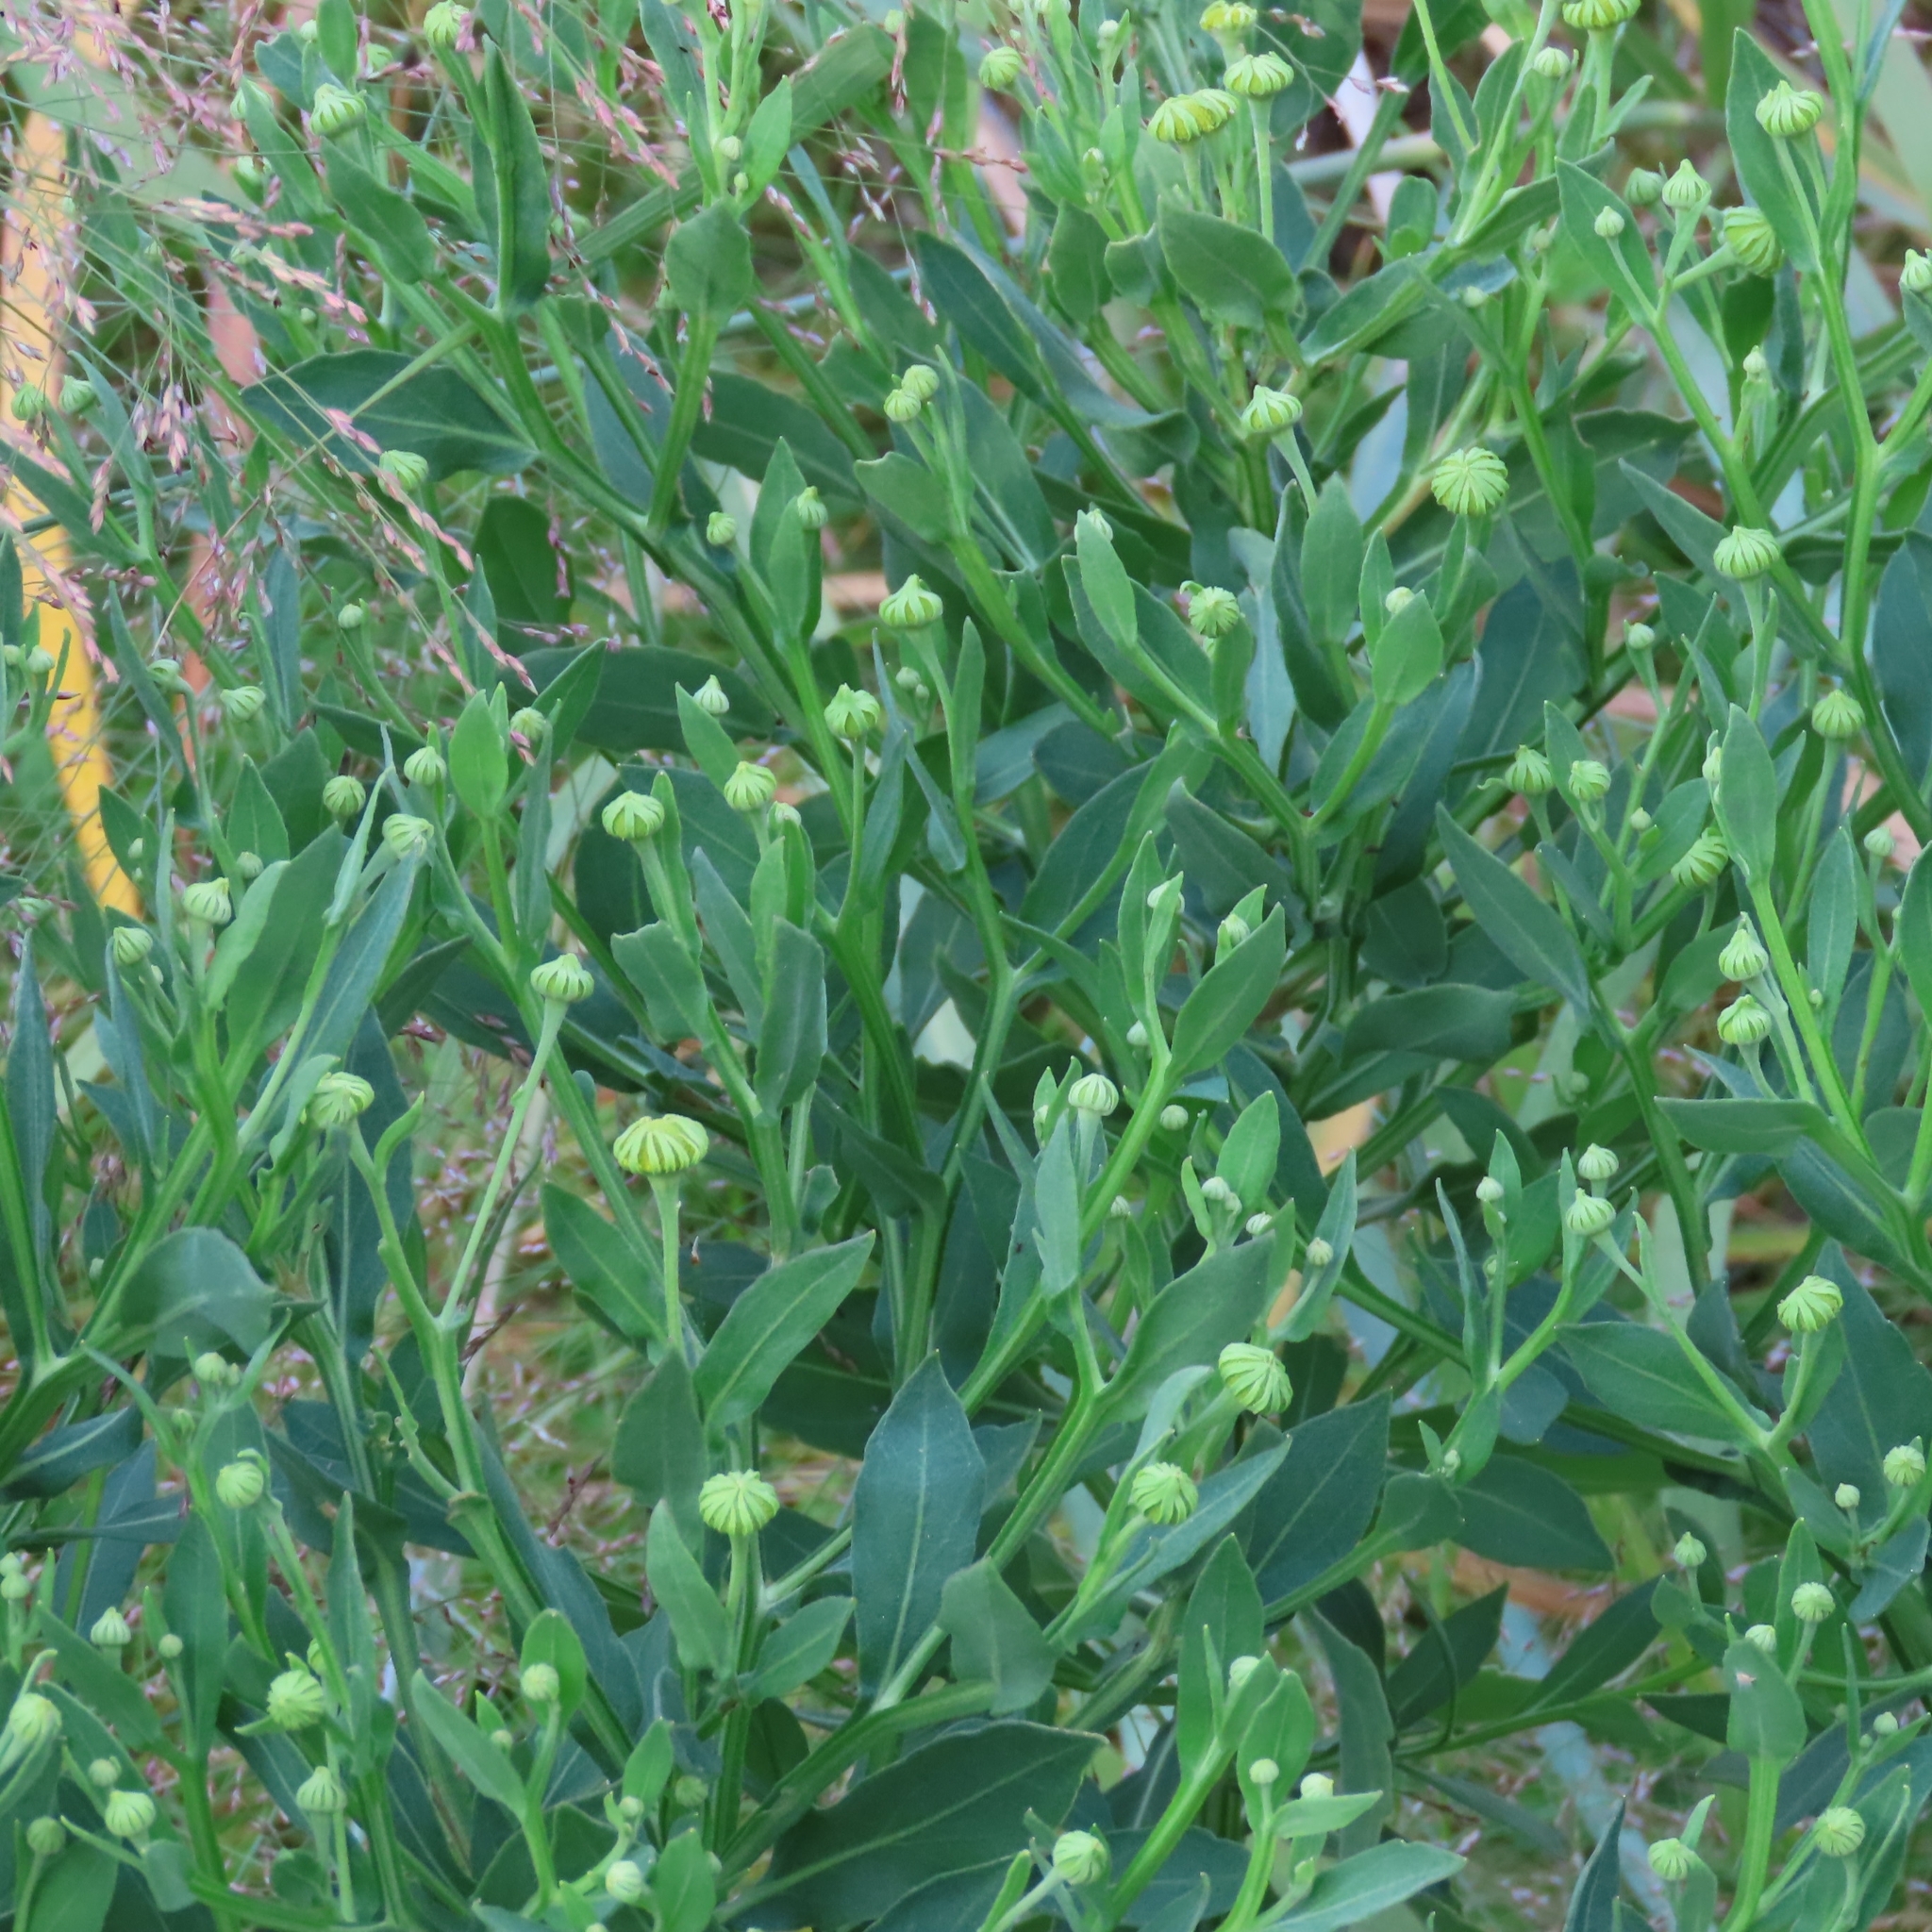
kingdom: Plantae
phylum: Tracheophyta
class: Magnoliopsida
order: Asterales
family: Asteraceae
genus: Helenium
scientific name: Helenium autumnale
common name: Sneezeweed
